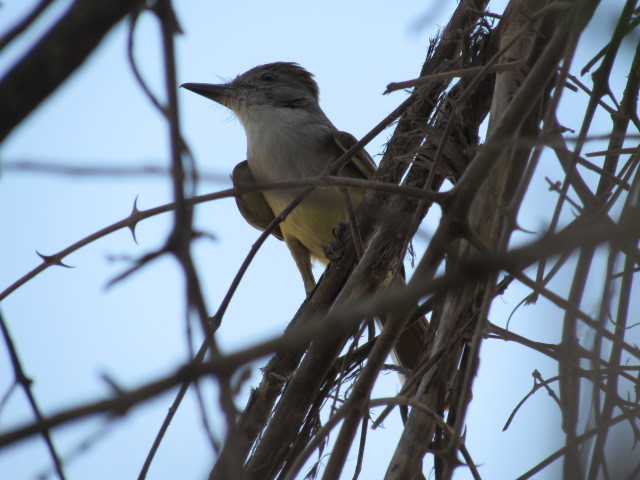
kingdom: Animalia
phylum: Chordata
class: Aves
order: Passeriformes
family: Tyrannidae
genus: Myiarchus
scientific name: Myiarchus tyrannulus
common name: Brown-crested flycatcher
